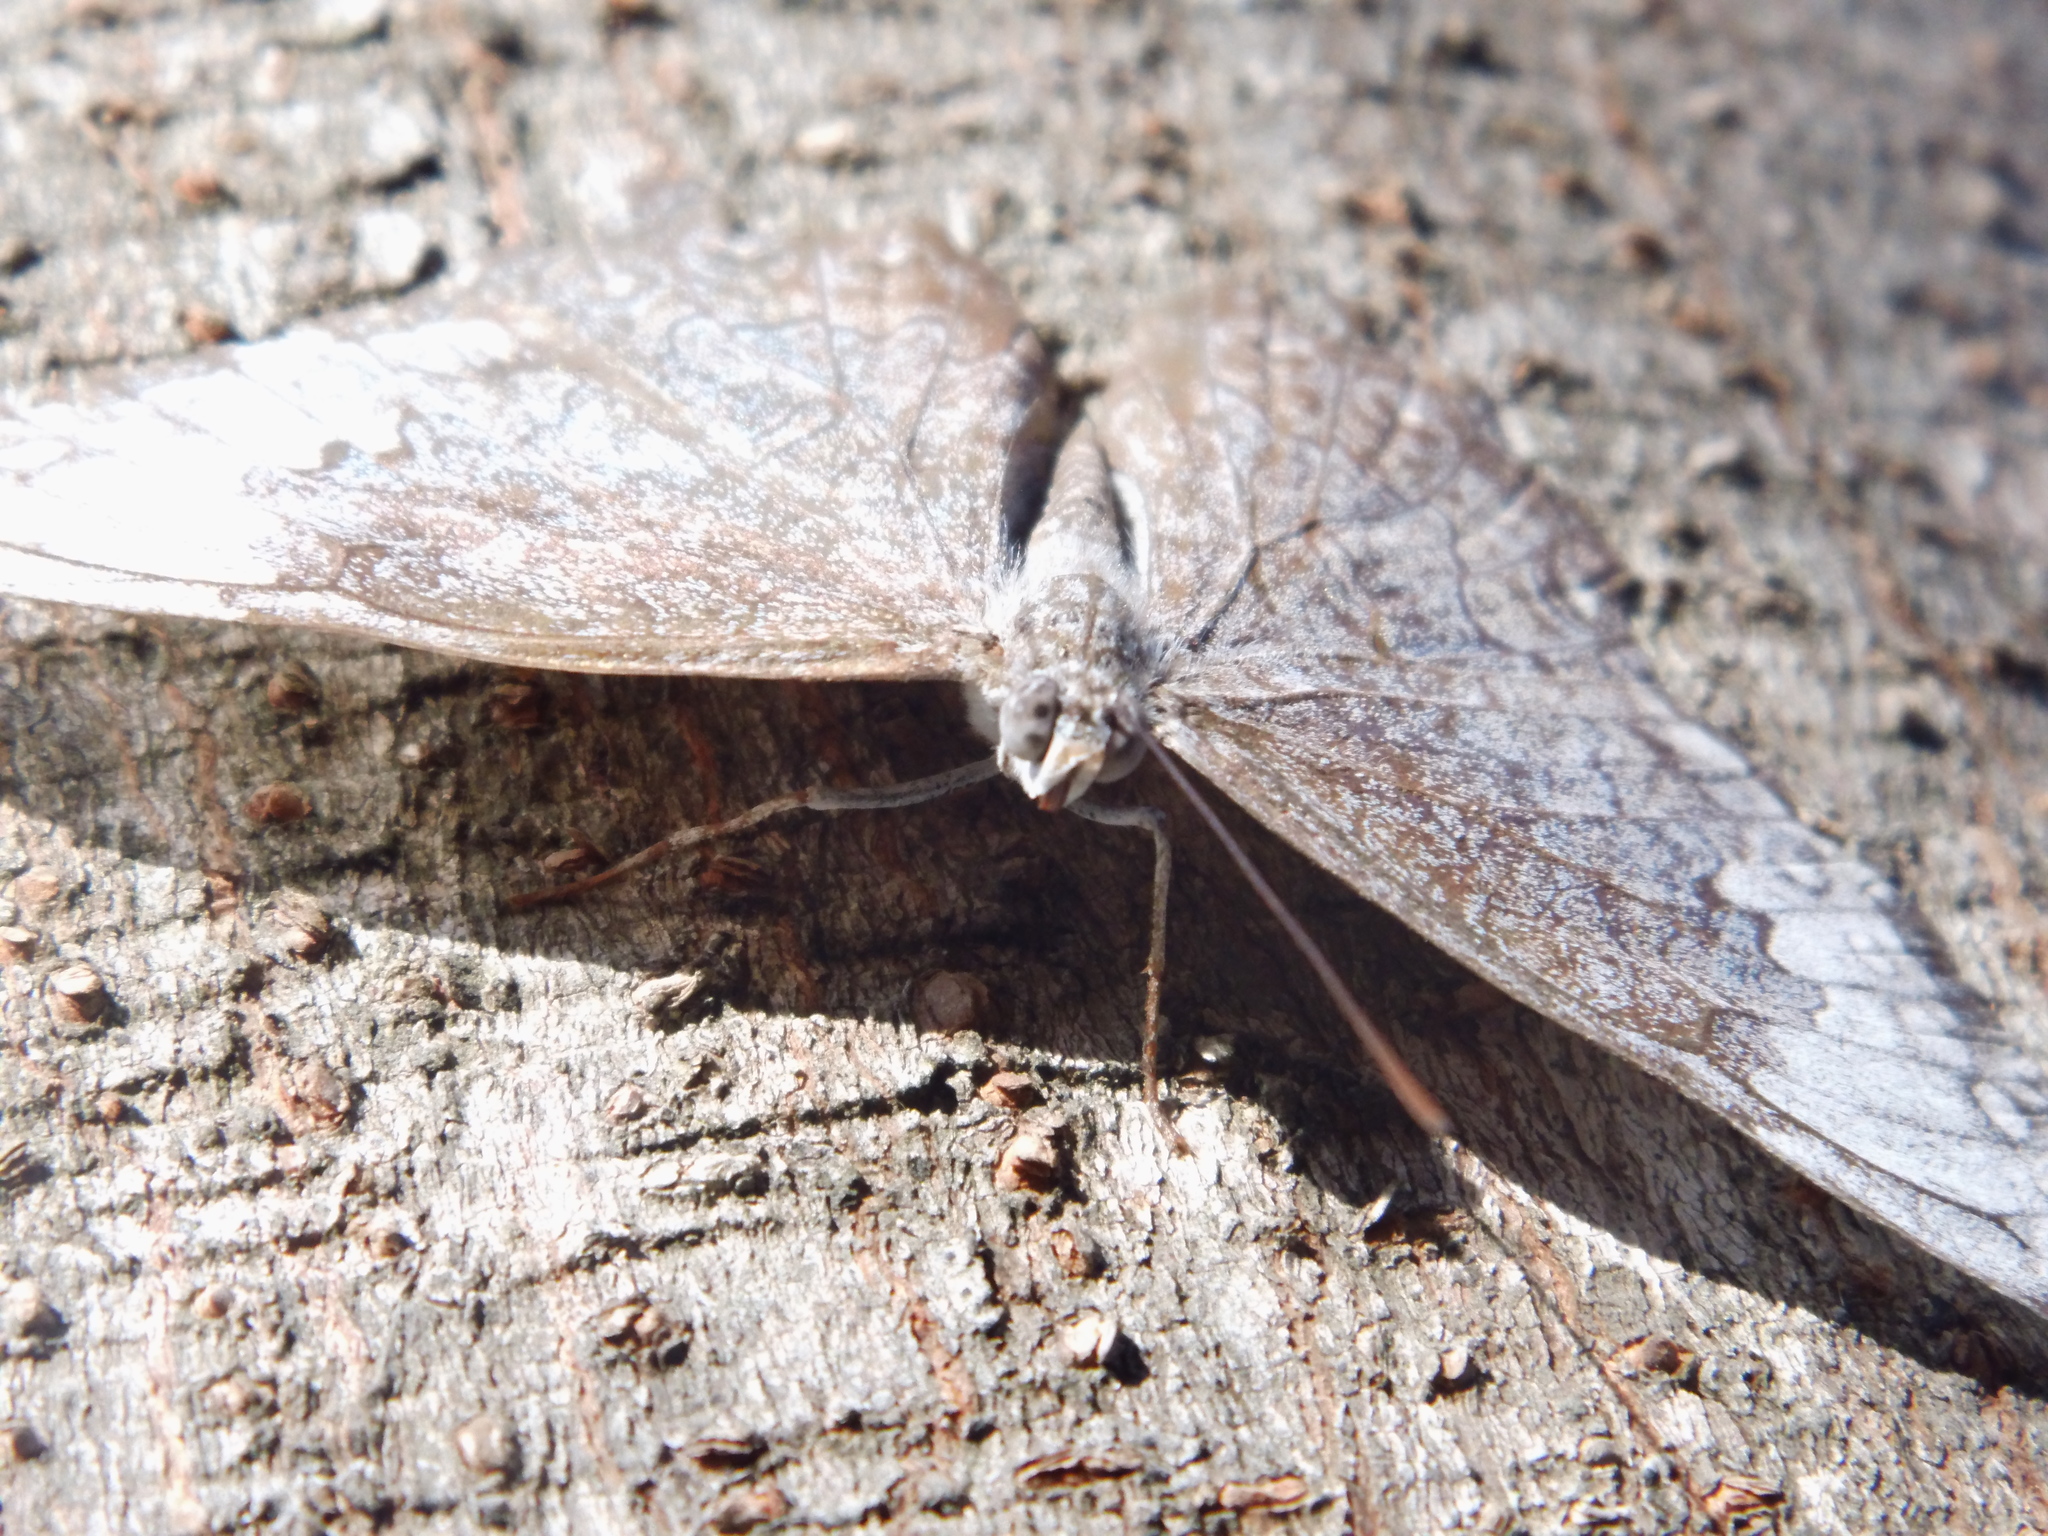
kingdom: Animalia
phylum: Arthropoda
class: Insecta
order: Lepidoptera
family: Nymphalidae
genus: Hamadryas
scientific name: Hamadryas glauconome
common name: Glaucous cracker
